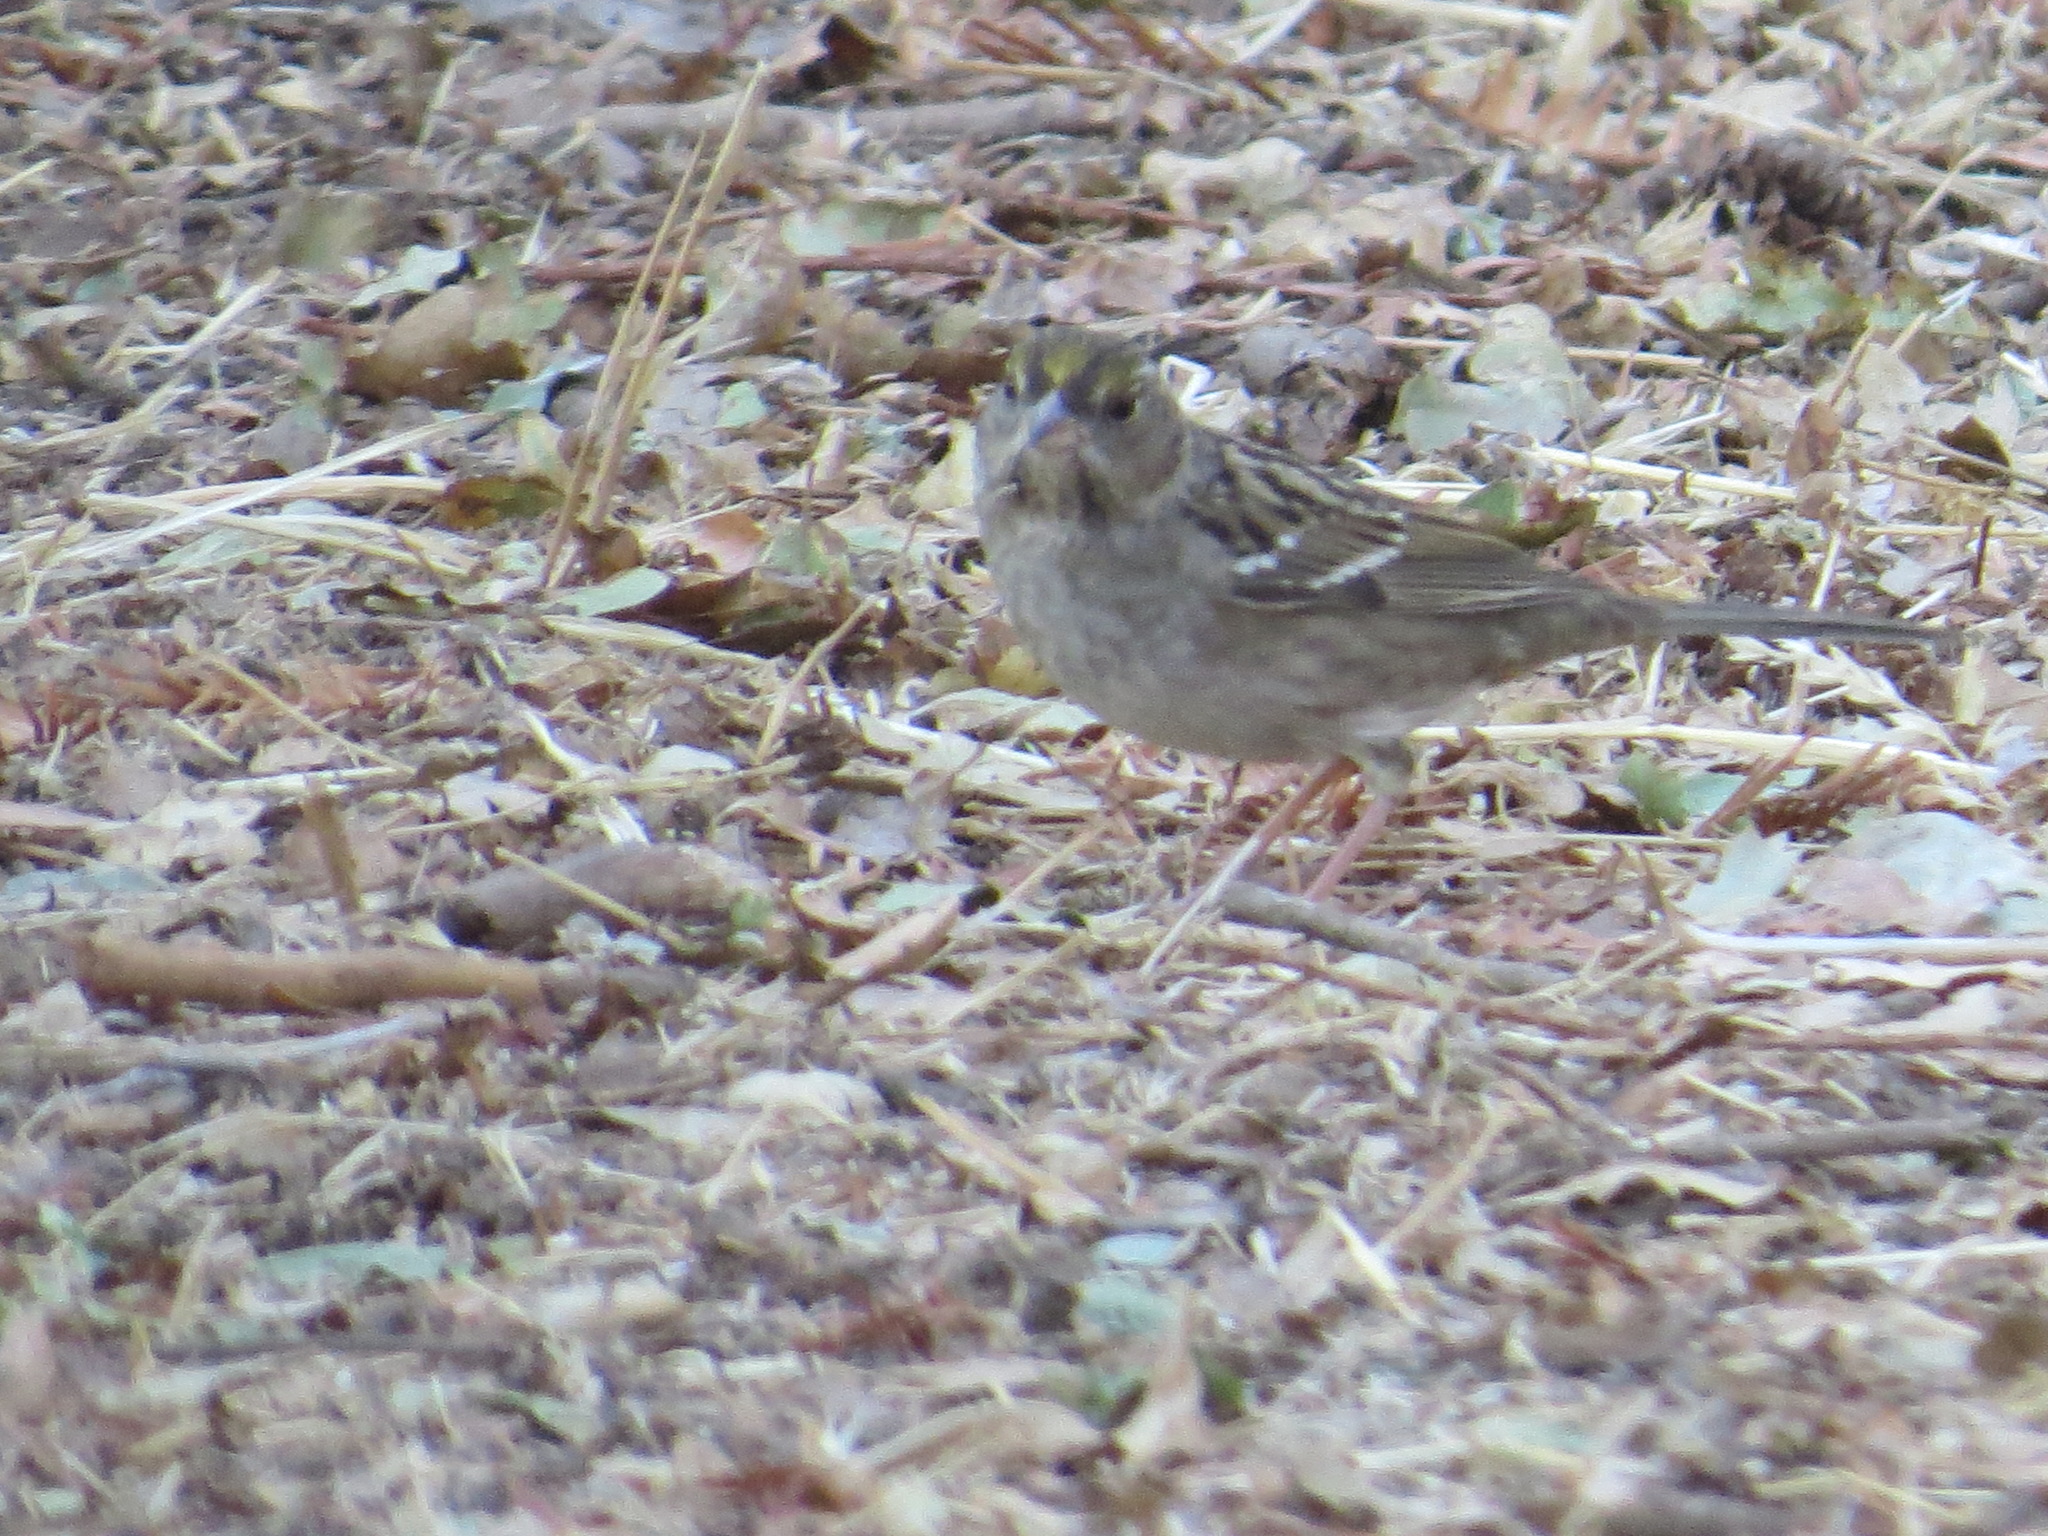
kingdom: Animalia
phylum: Chordata
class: Aves
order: Passeriformes
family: Passerellidae
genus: Zonotrichia
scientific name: Zonotrichia atricapilla
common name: Golden-crowned sparrow
